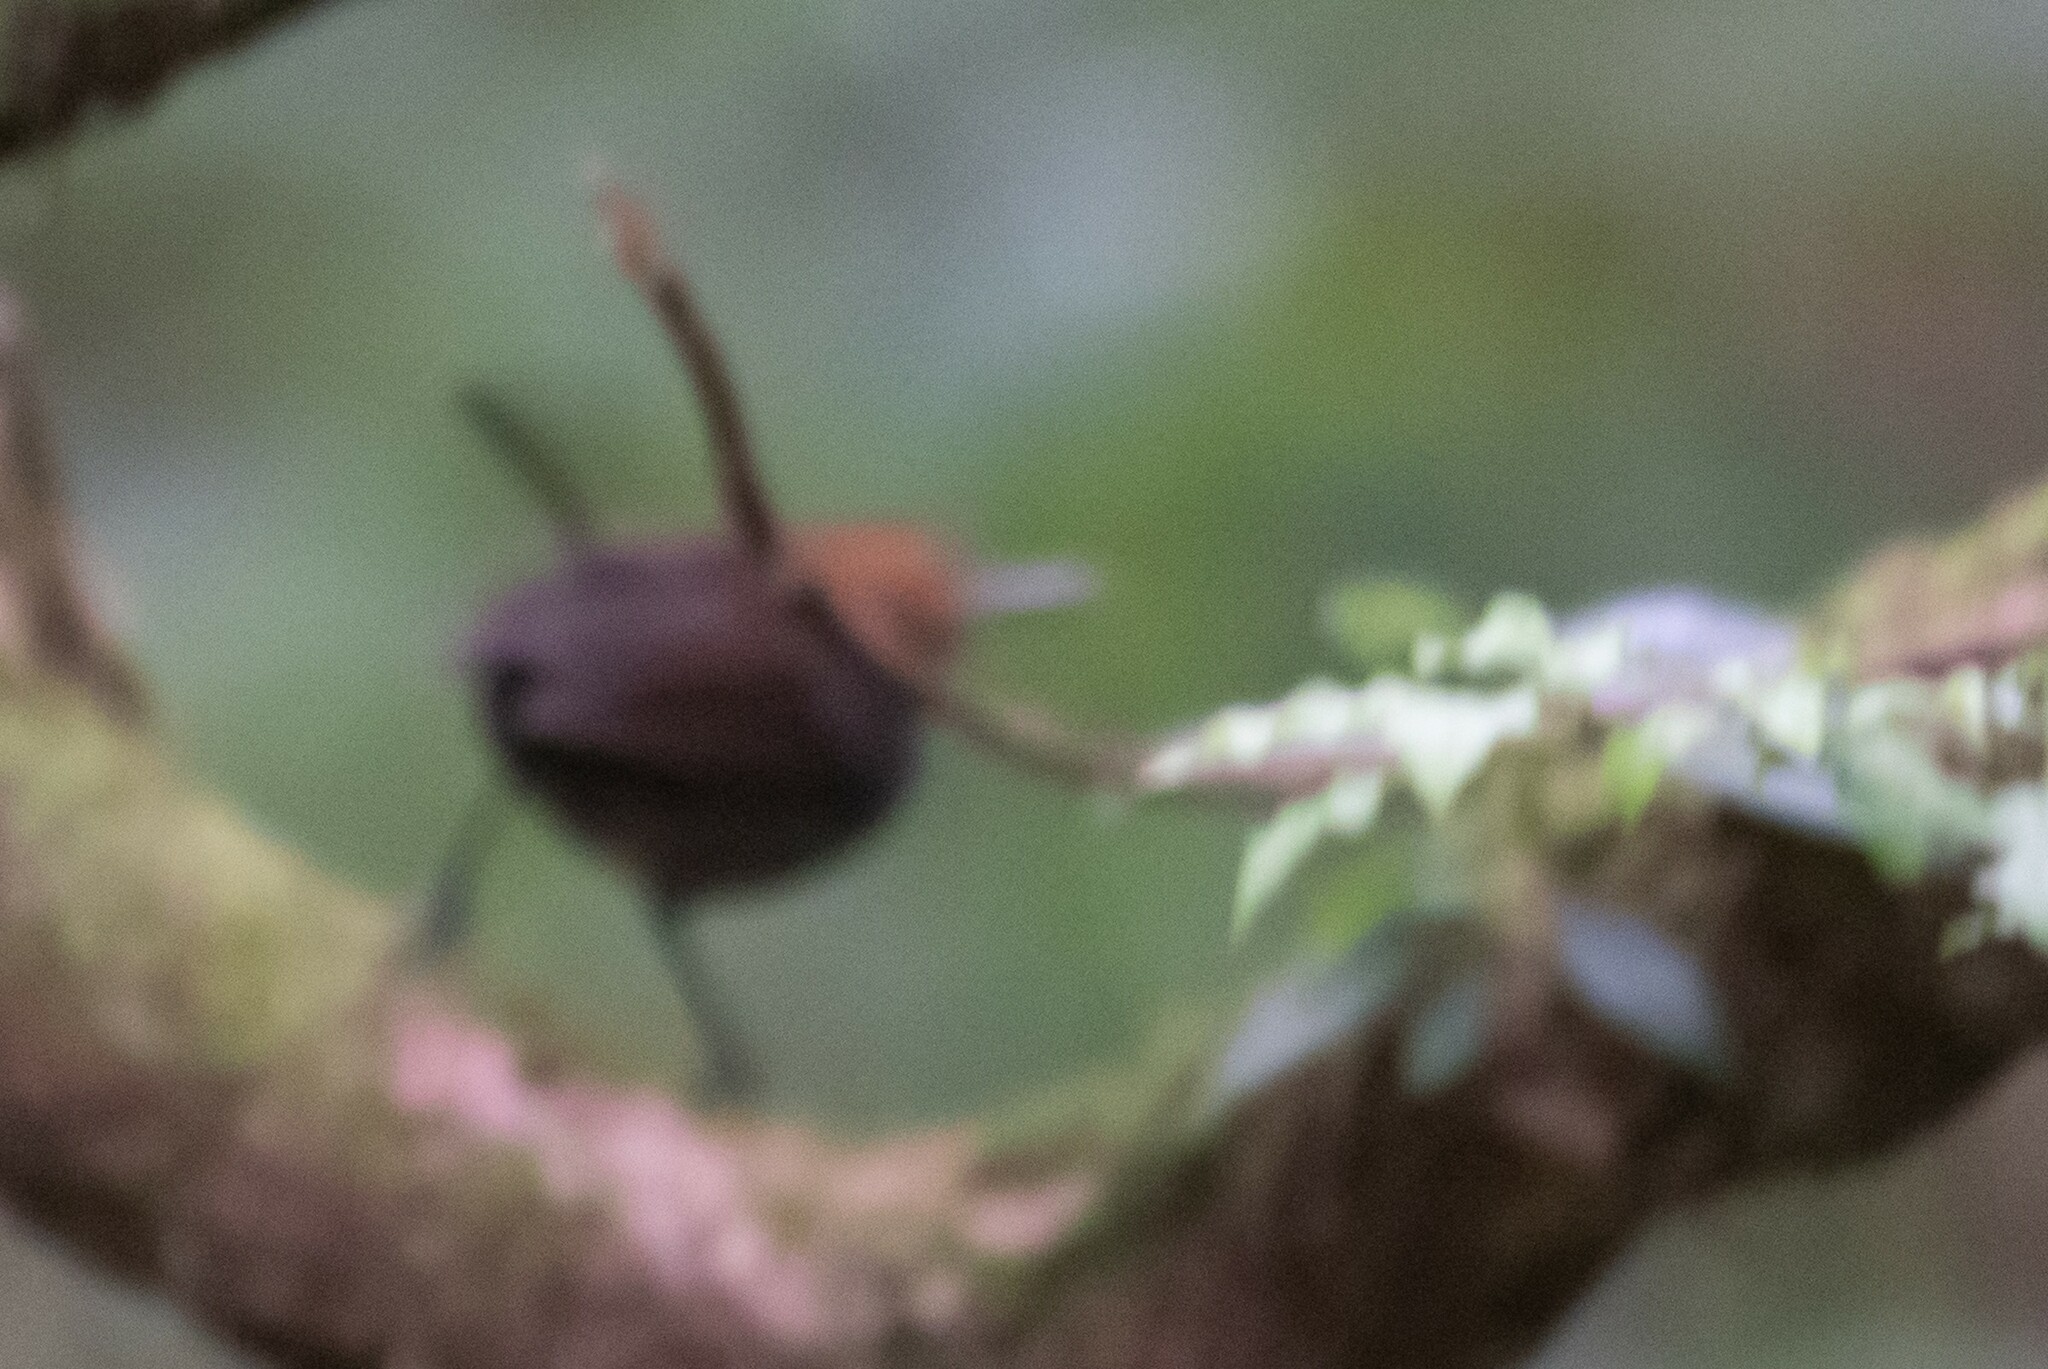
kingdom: Animalia
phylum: Chordata
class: Aves
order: Passeriformes
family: Polioptilidae
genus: Ramphocaenus
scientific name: Ramphocaenus melanurus
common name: Long-billed gnatwren
